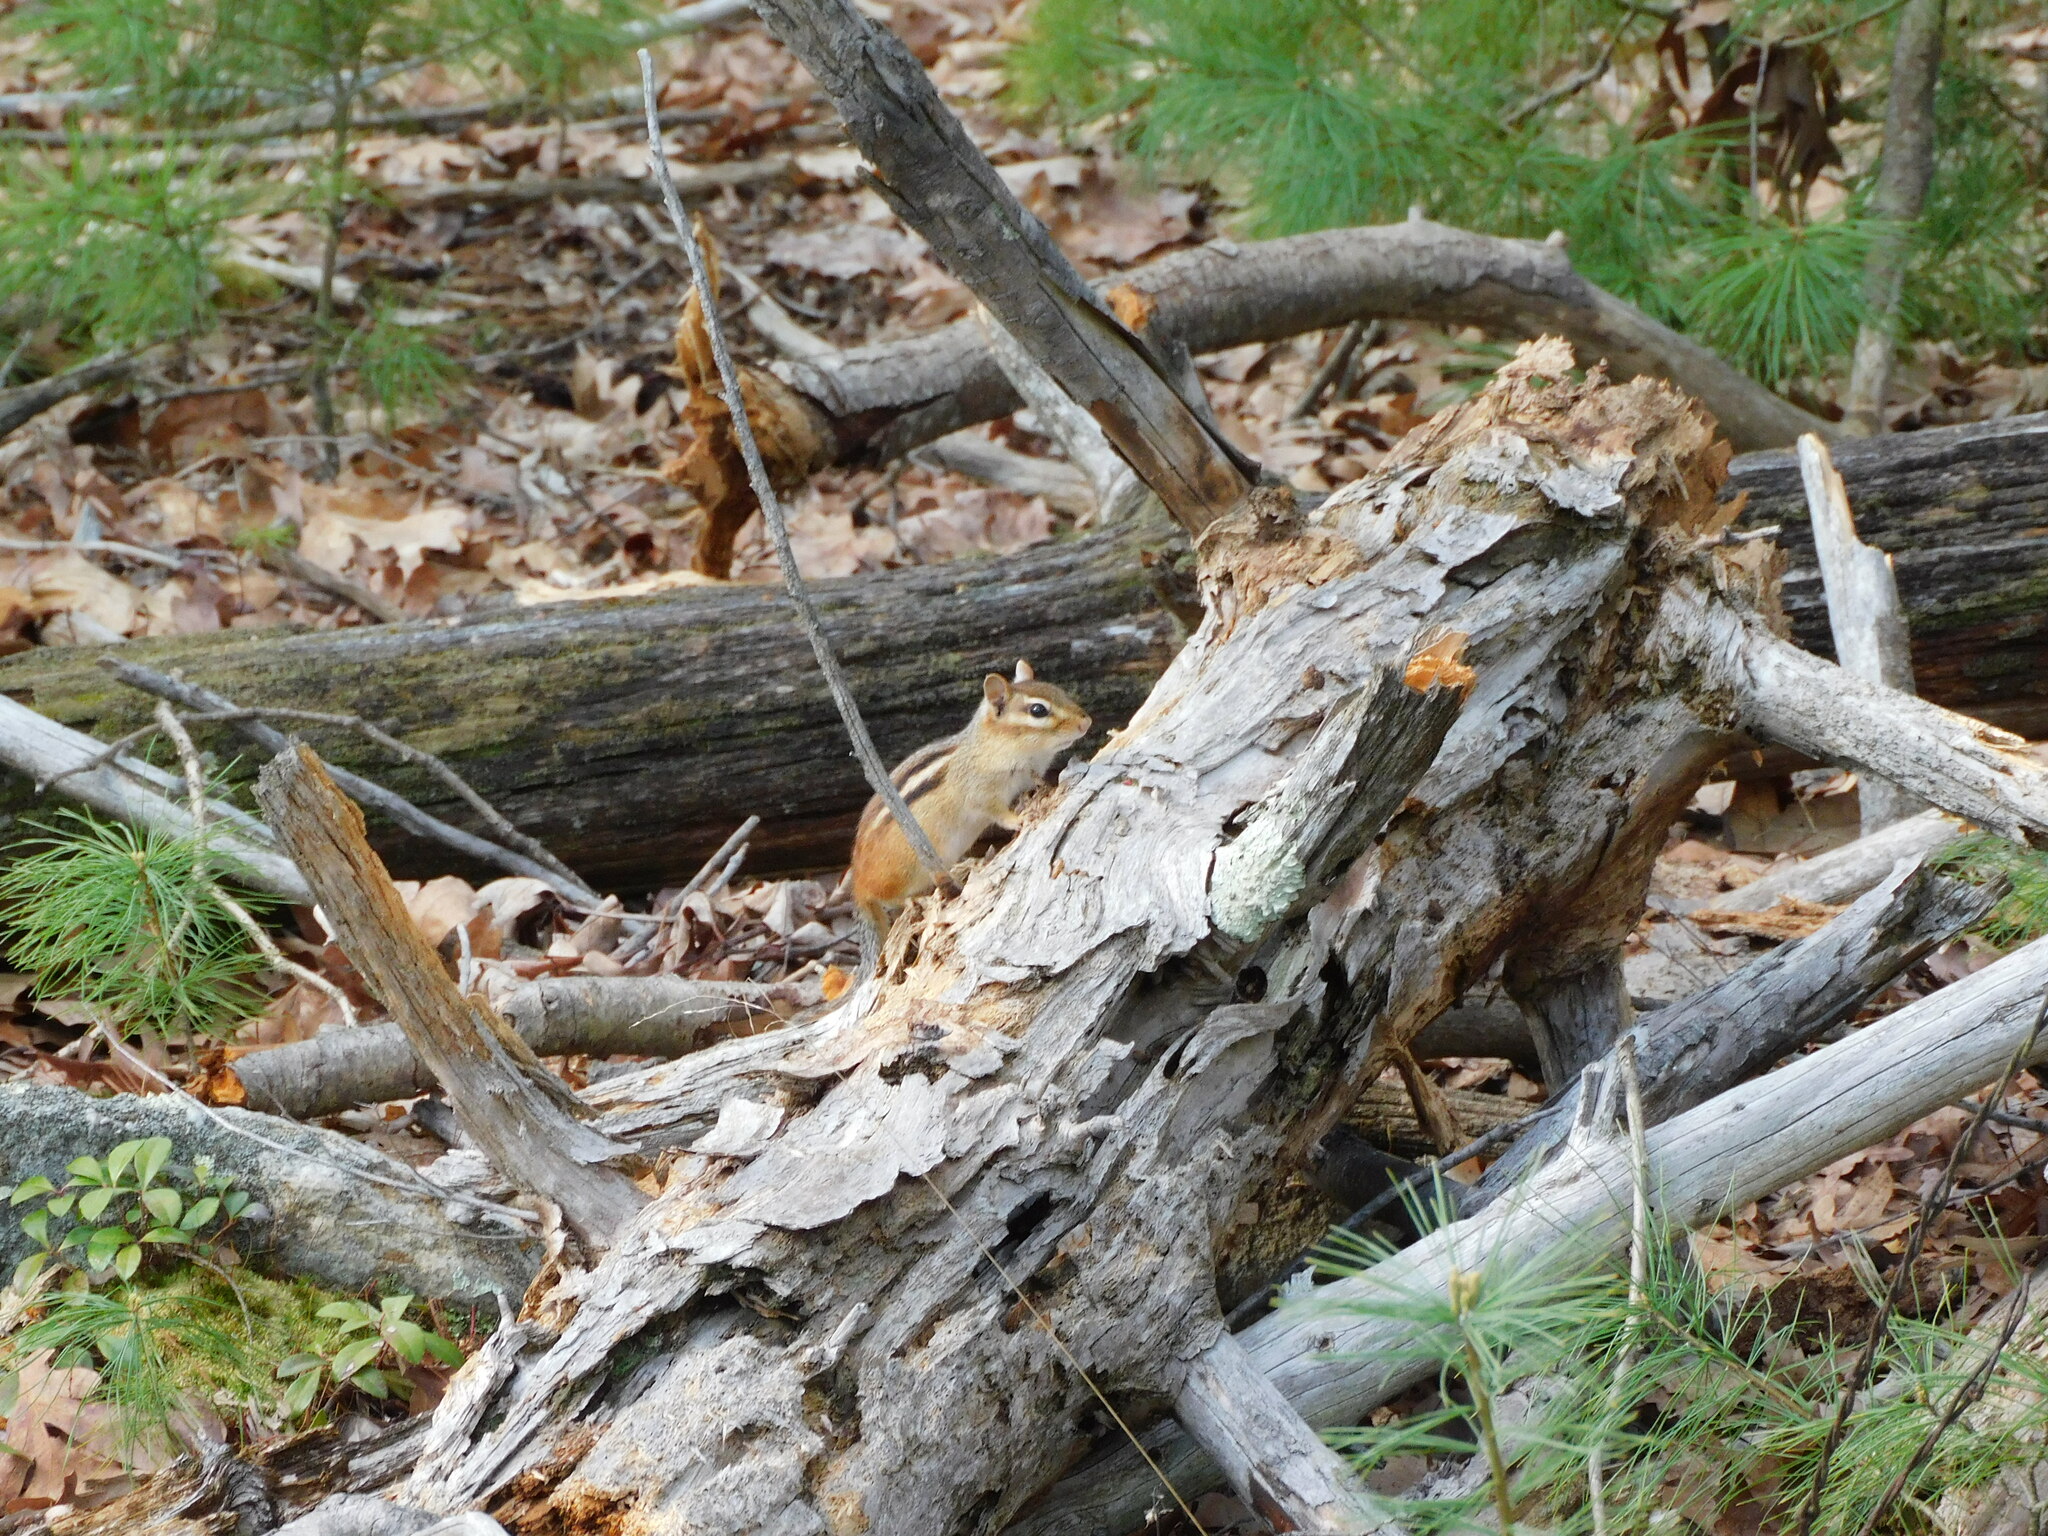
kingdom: Animalia
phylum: Chordata
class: Mammalia
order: Rodentia
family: Sciuridae
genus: Tamias
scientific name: Tamias striatus
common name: Eastern chipmunk
